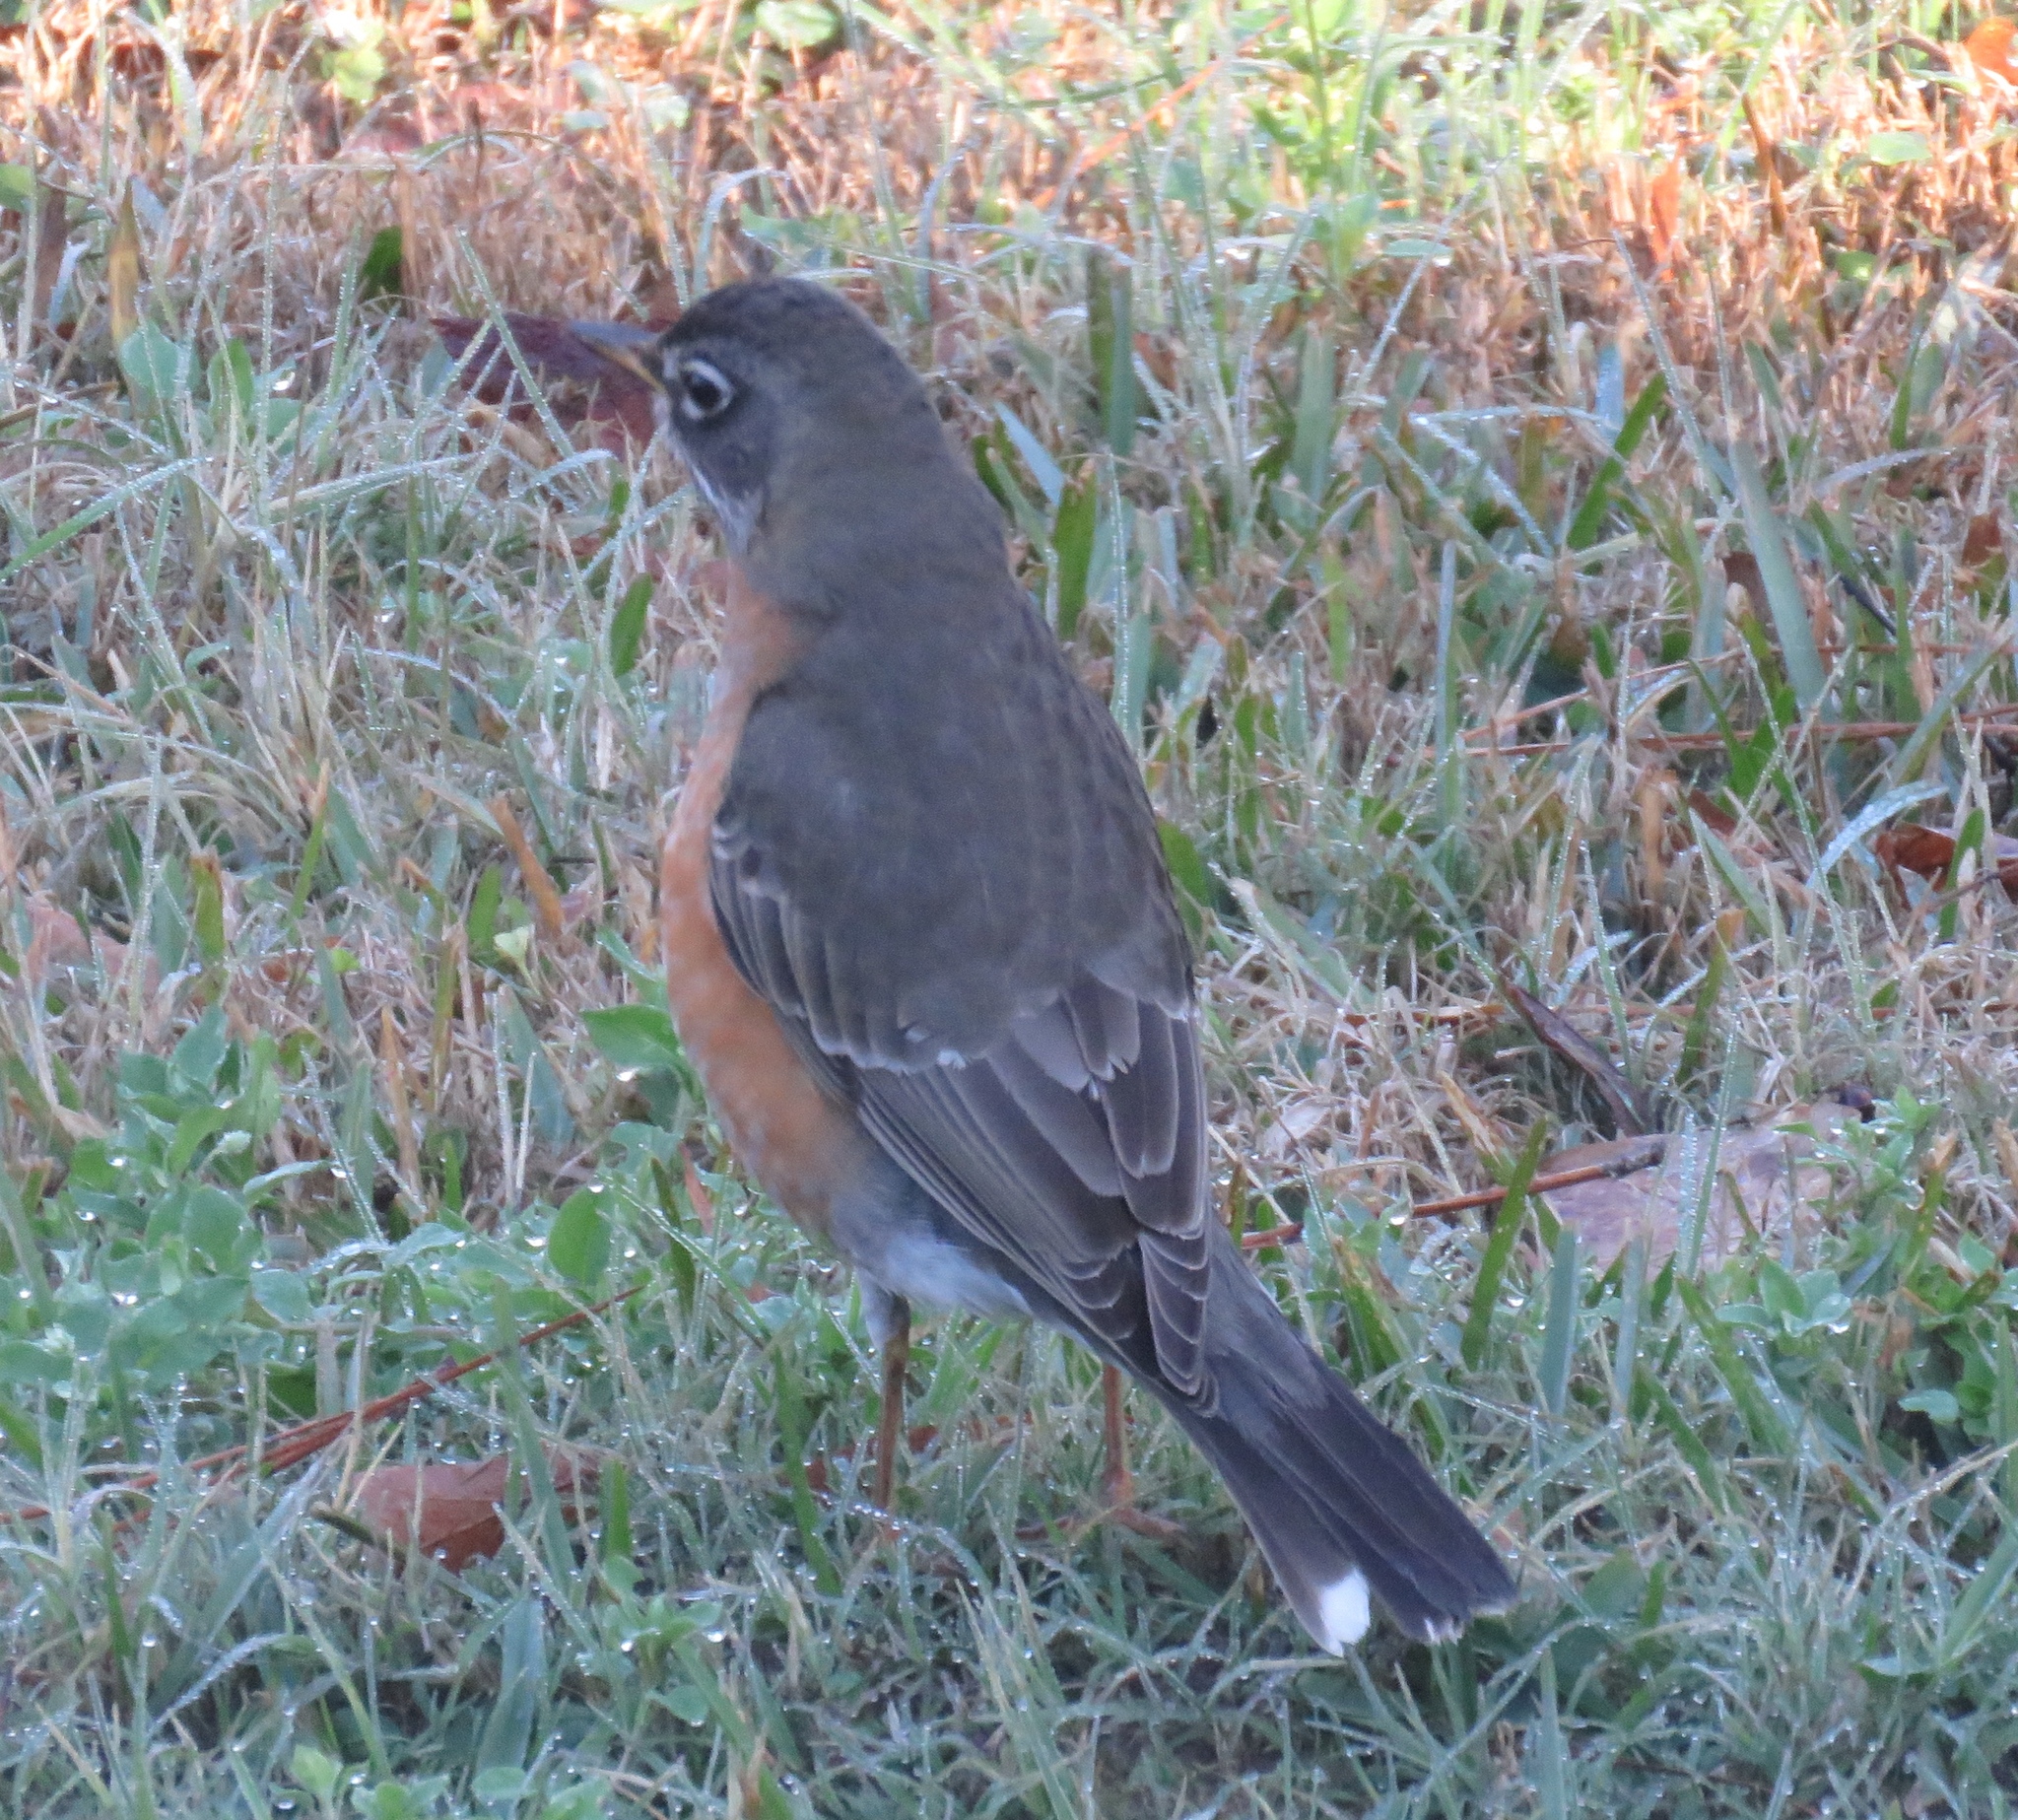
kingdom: Animalia
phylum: Chordata
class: Aves
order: Passeriformes
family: Turdidae
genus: Turdus
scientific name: Turdus migratorius
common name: American robin
